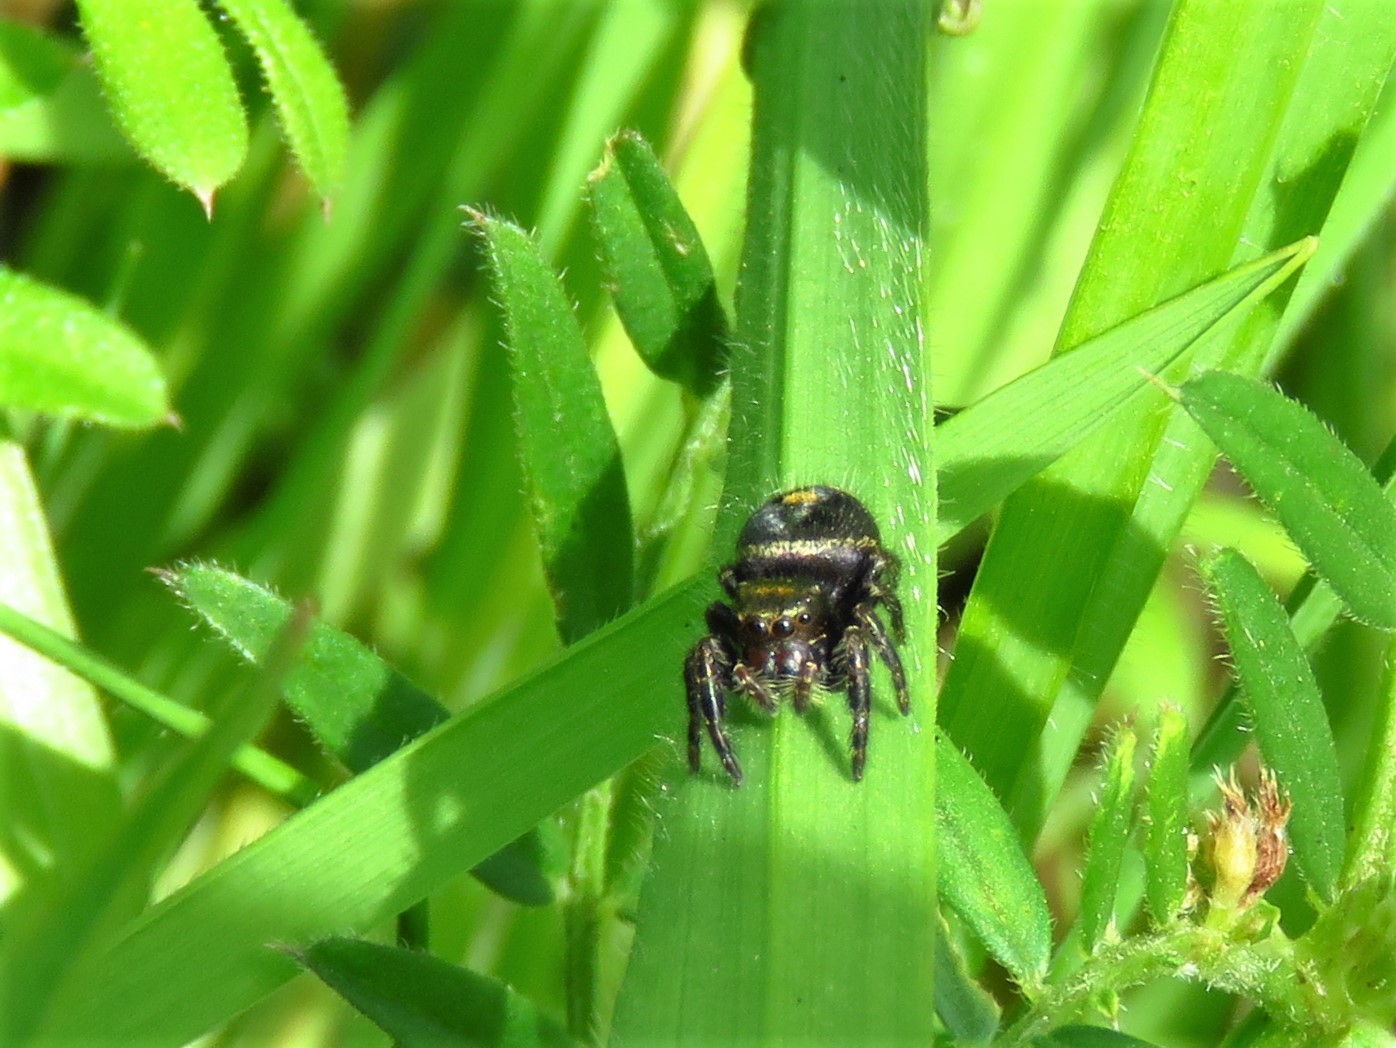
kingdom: Animalia
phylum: Arthropoda
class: Arachnida
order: Araneae
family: Salticidae
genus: Phidippus
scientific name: Phidippus audax
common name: Bold jumper
